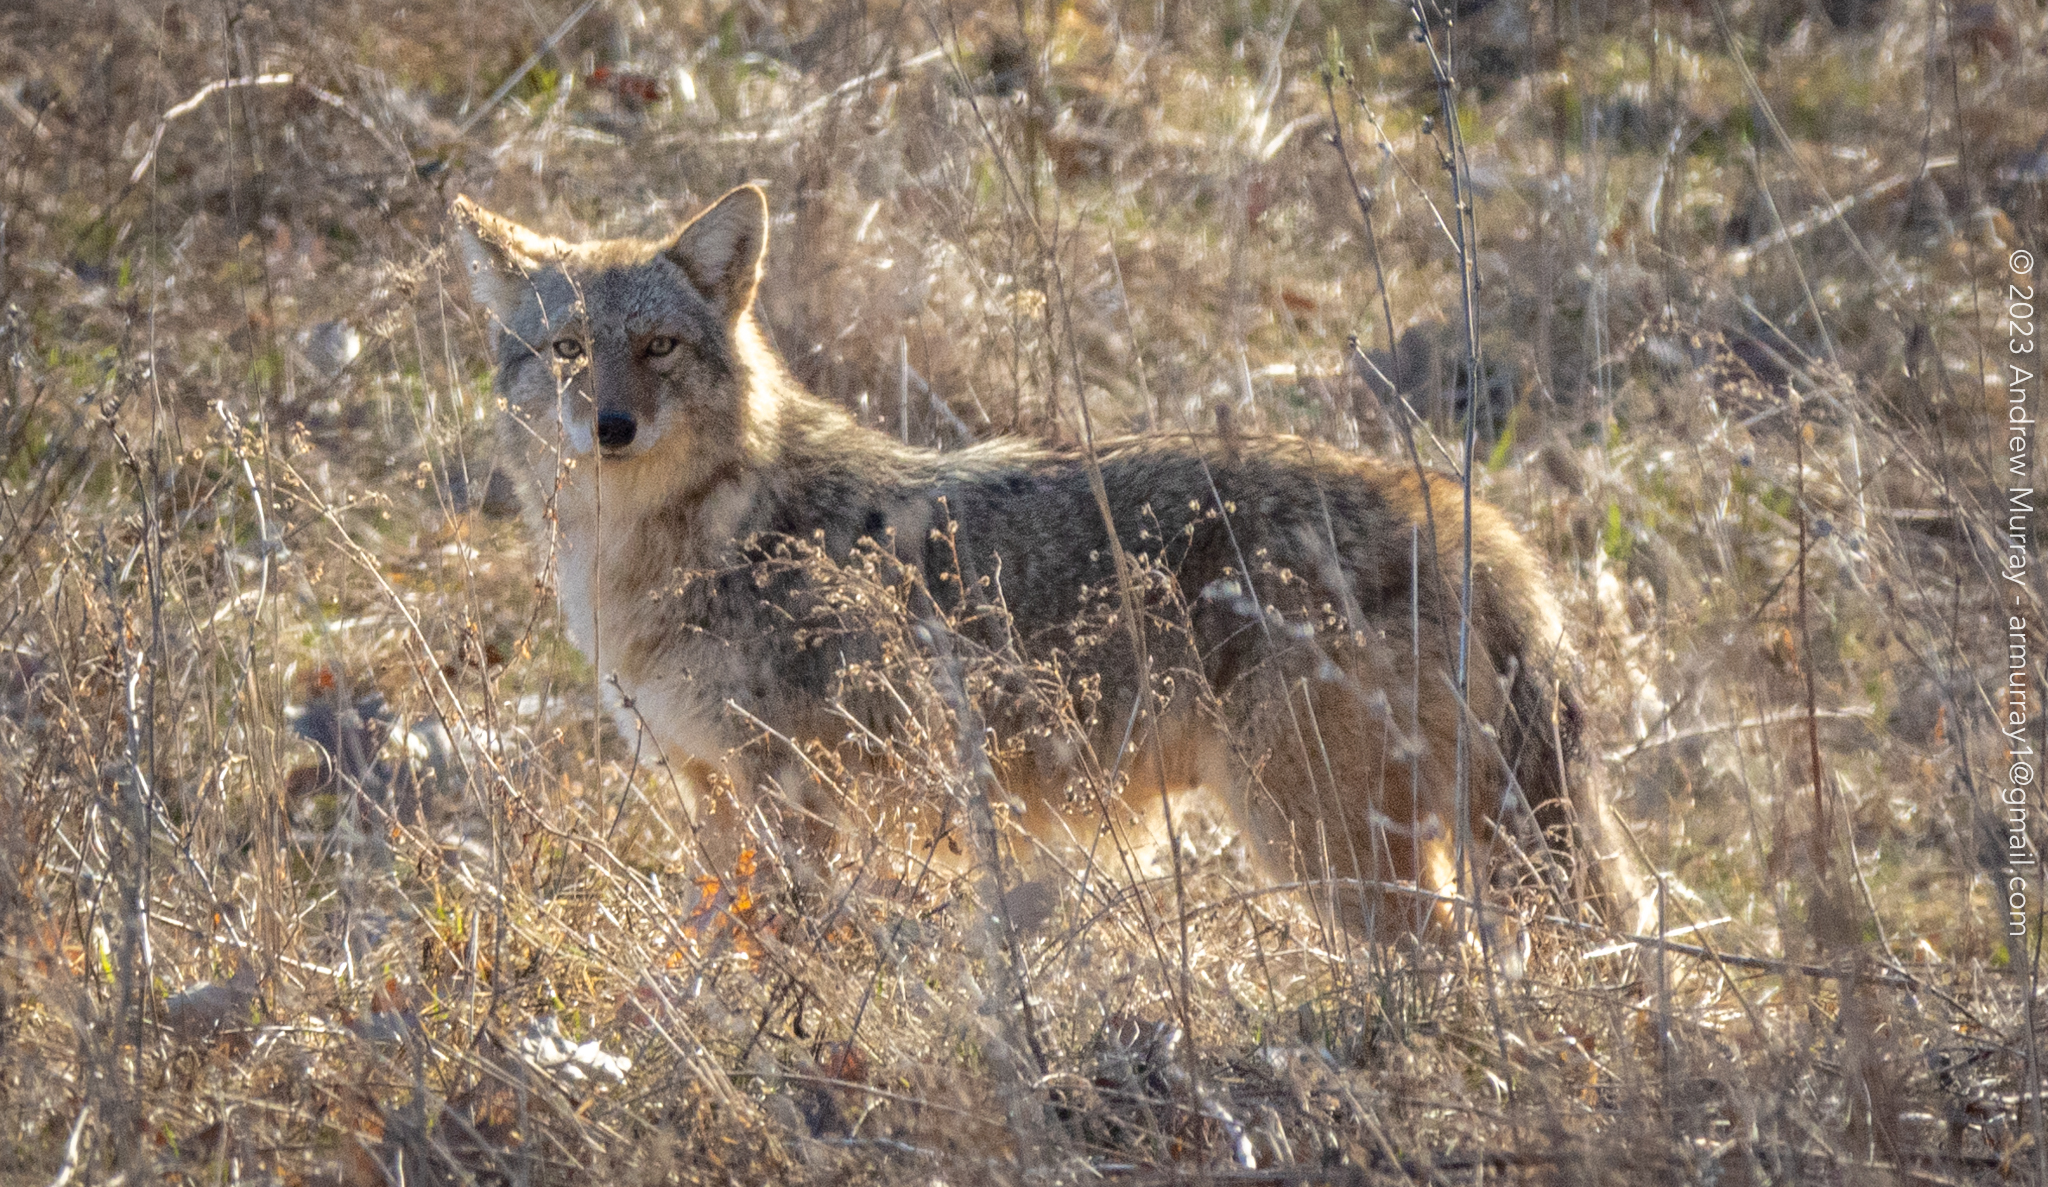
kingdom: Animalia
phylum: Chordata
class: Mammalia
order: Carnivora
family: Canidae
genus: Canis
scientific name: Canis latrans
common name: Coyote
